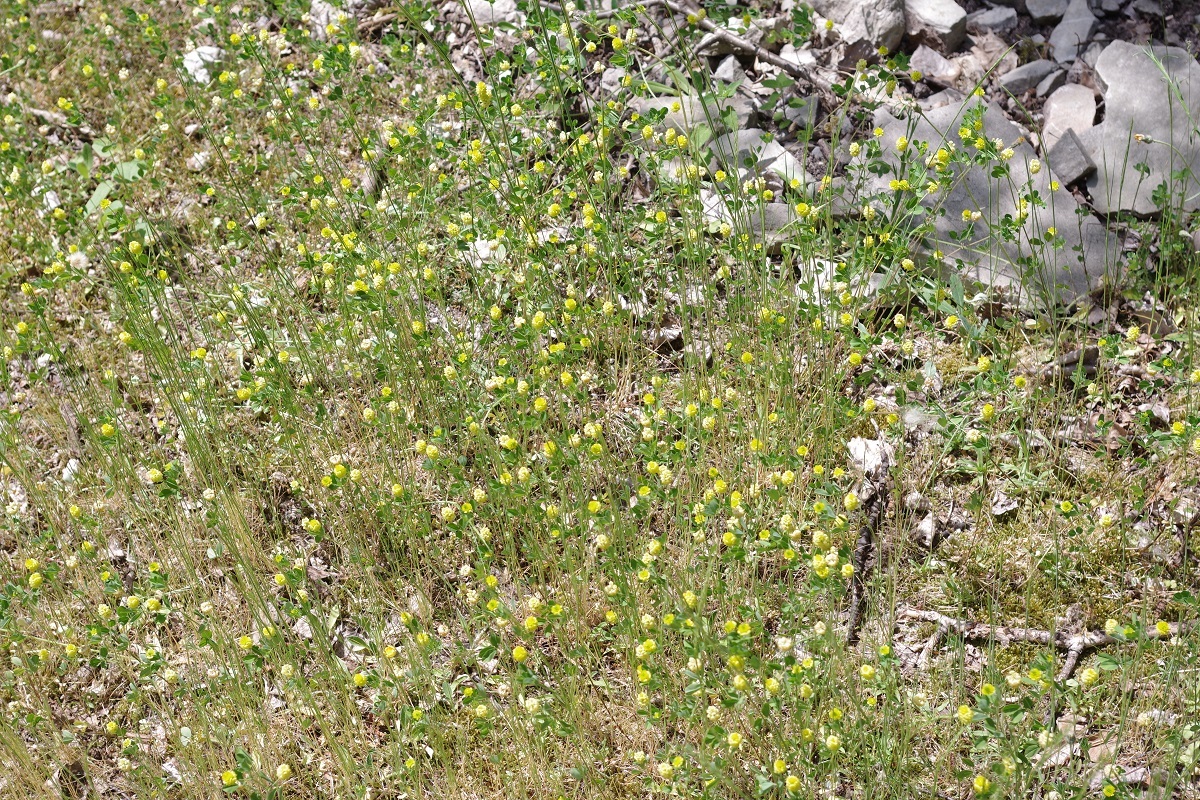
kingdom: Plantae
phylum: Tracheophyta
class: Magnoliopsida
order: Fabales
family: Fabaceae
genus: Trifolium
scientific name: Trifolium campestre
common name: Field clover
